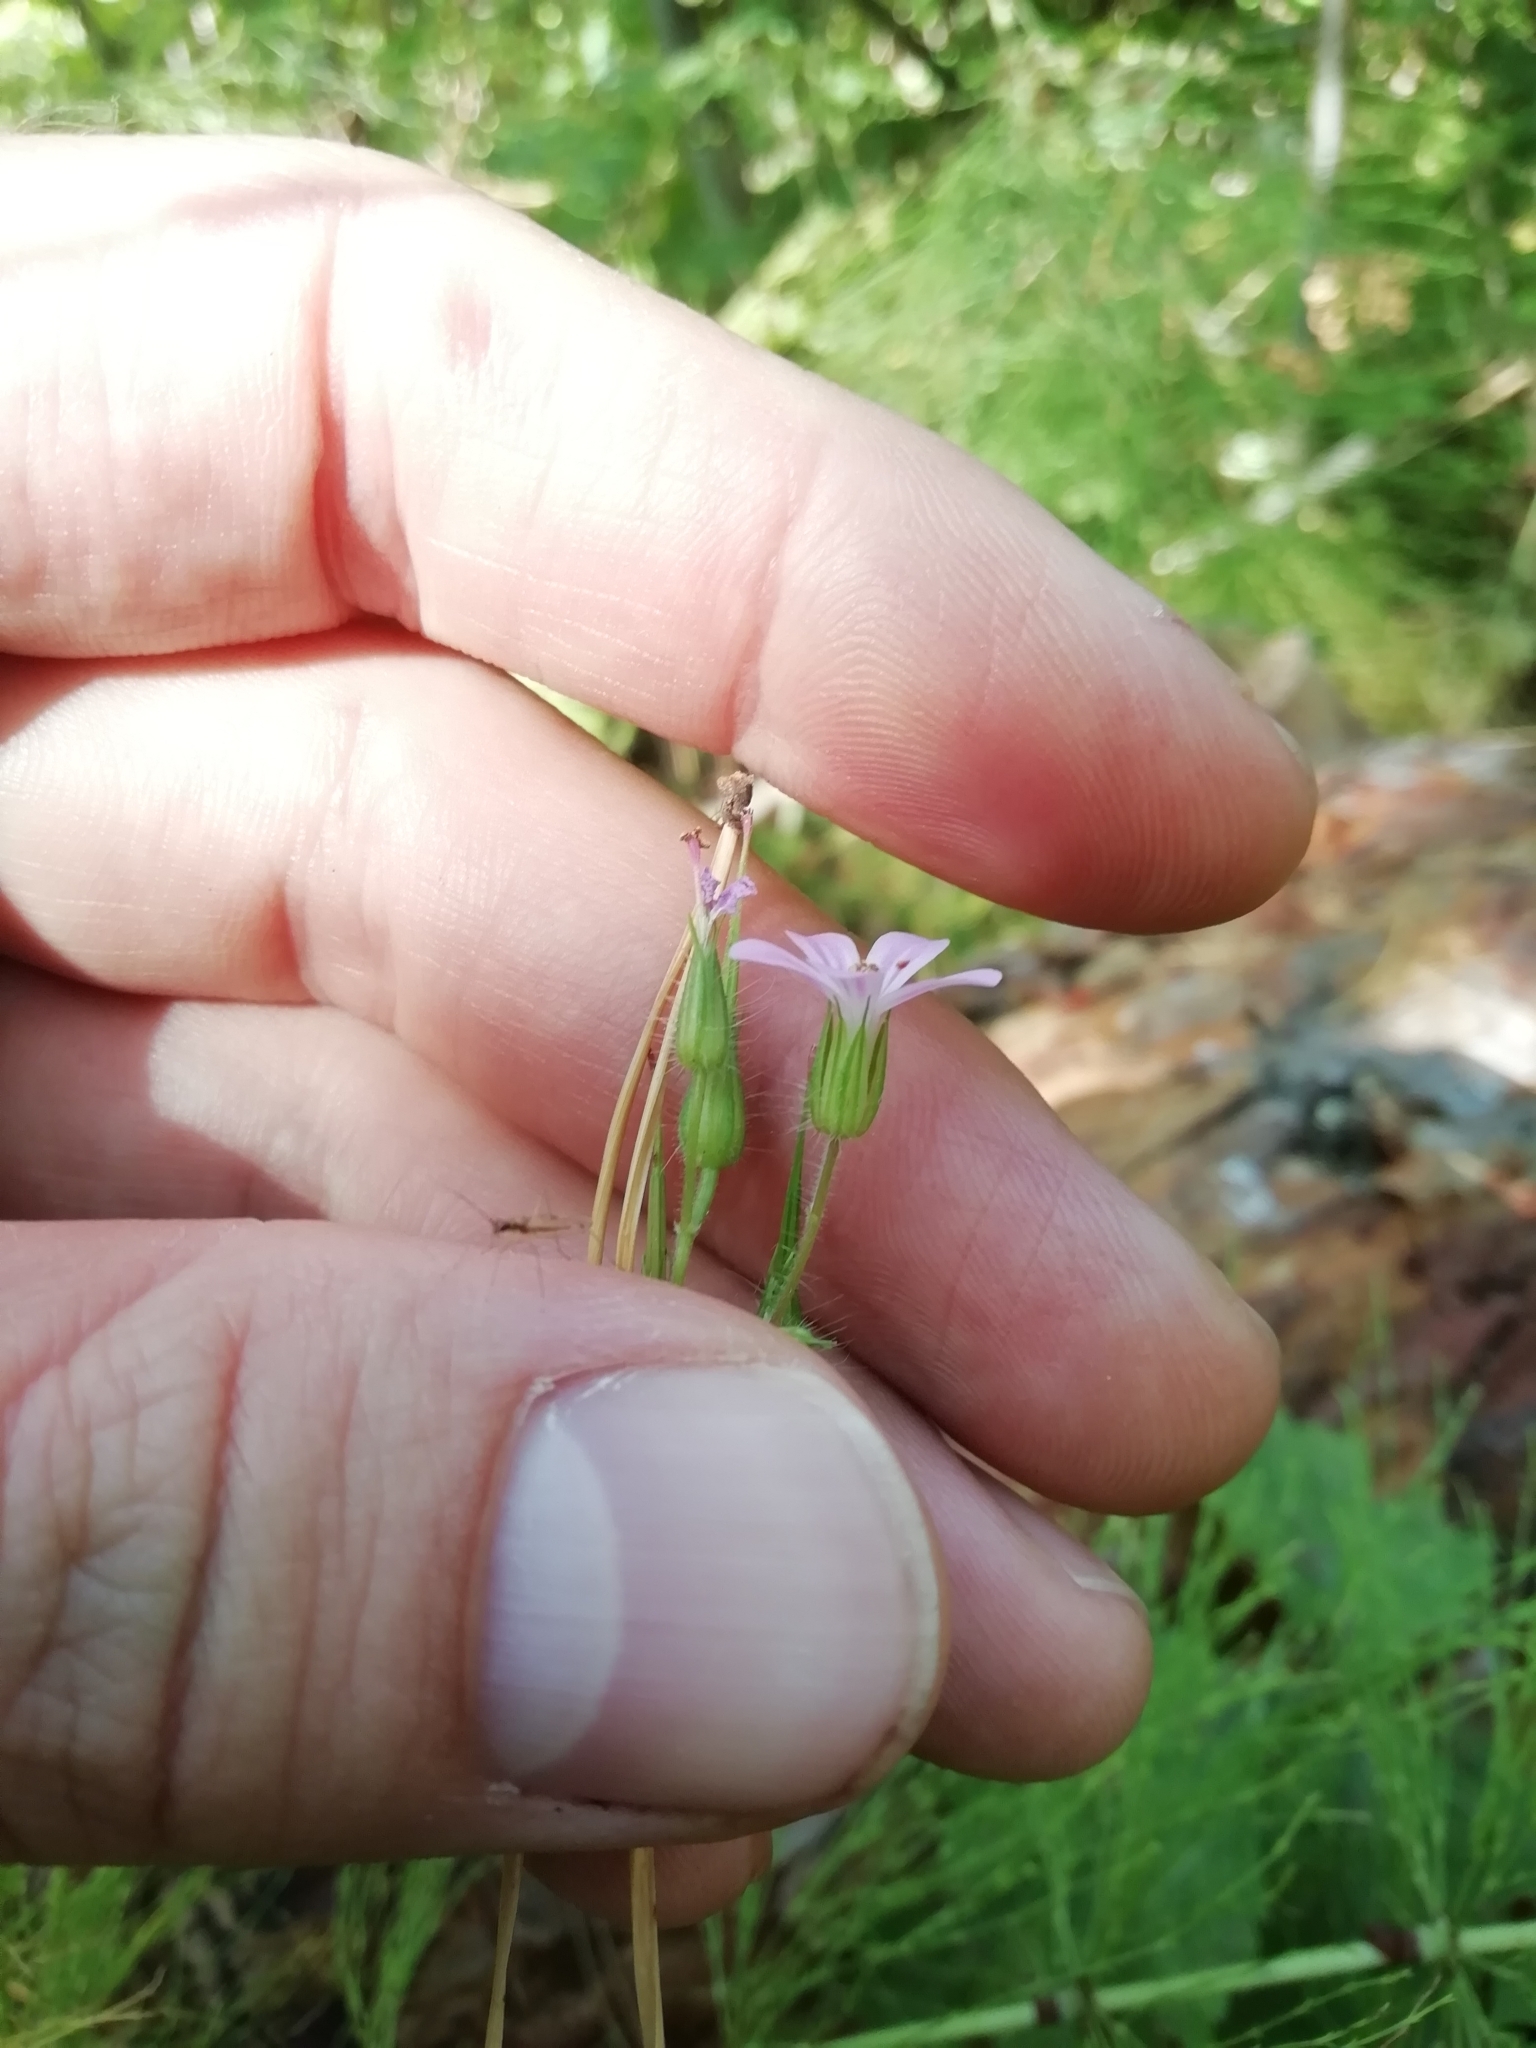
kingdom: Plantae
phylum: Tracheophyta
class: Magnoliopsida
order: Geraniales
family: Geraniaceae
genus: Geranium
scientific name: Geranium robertianum
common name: Herb-robert
